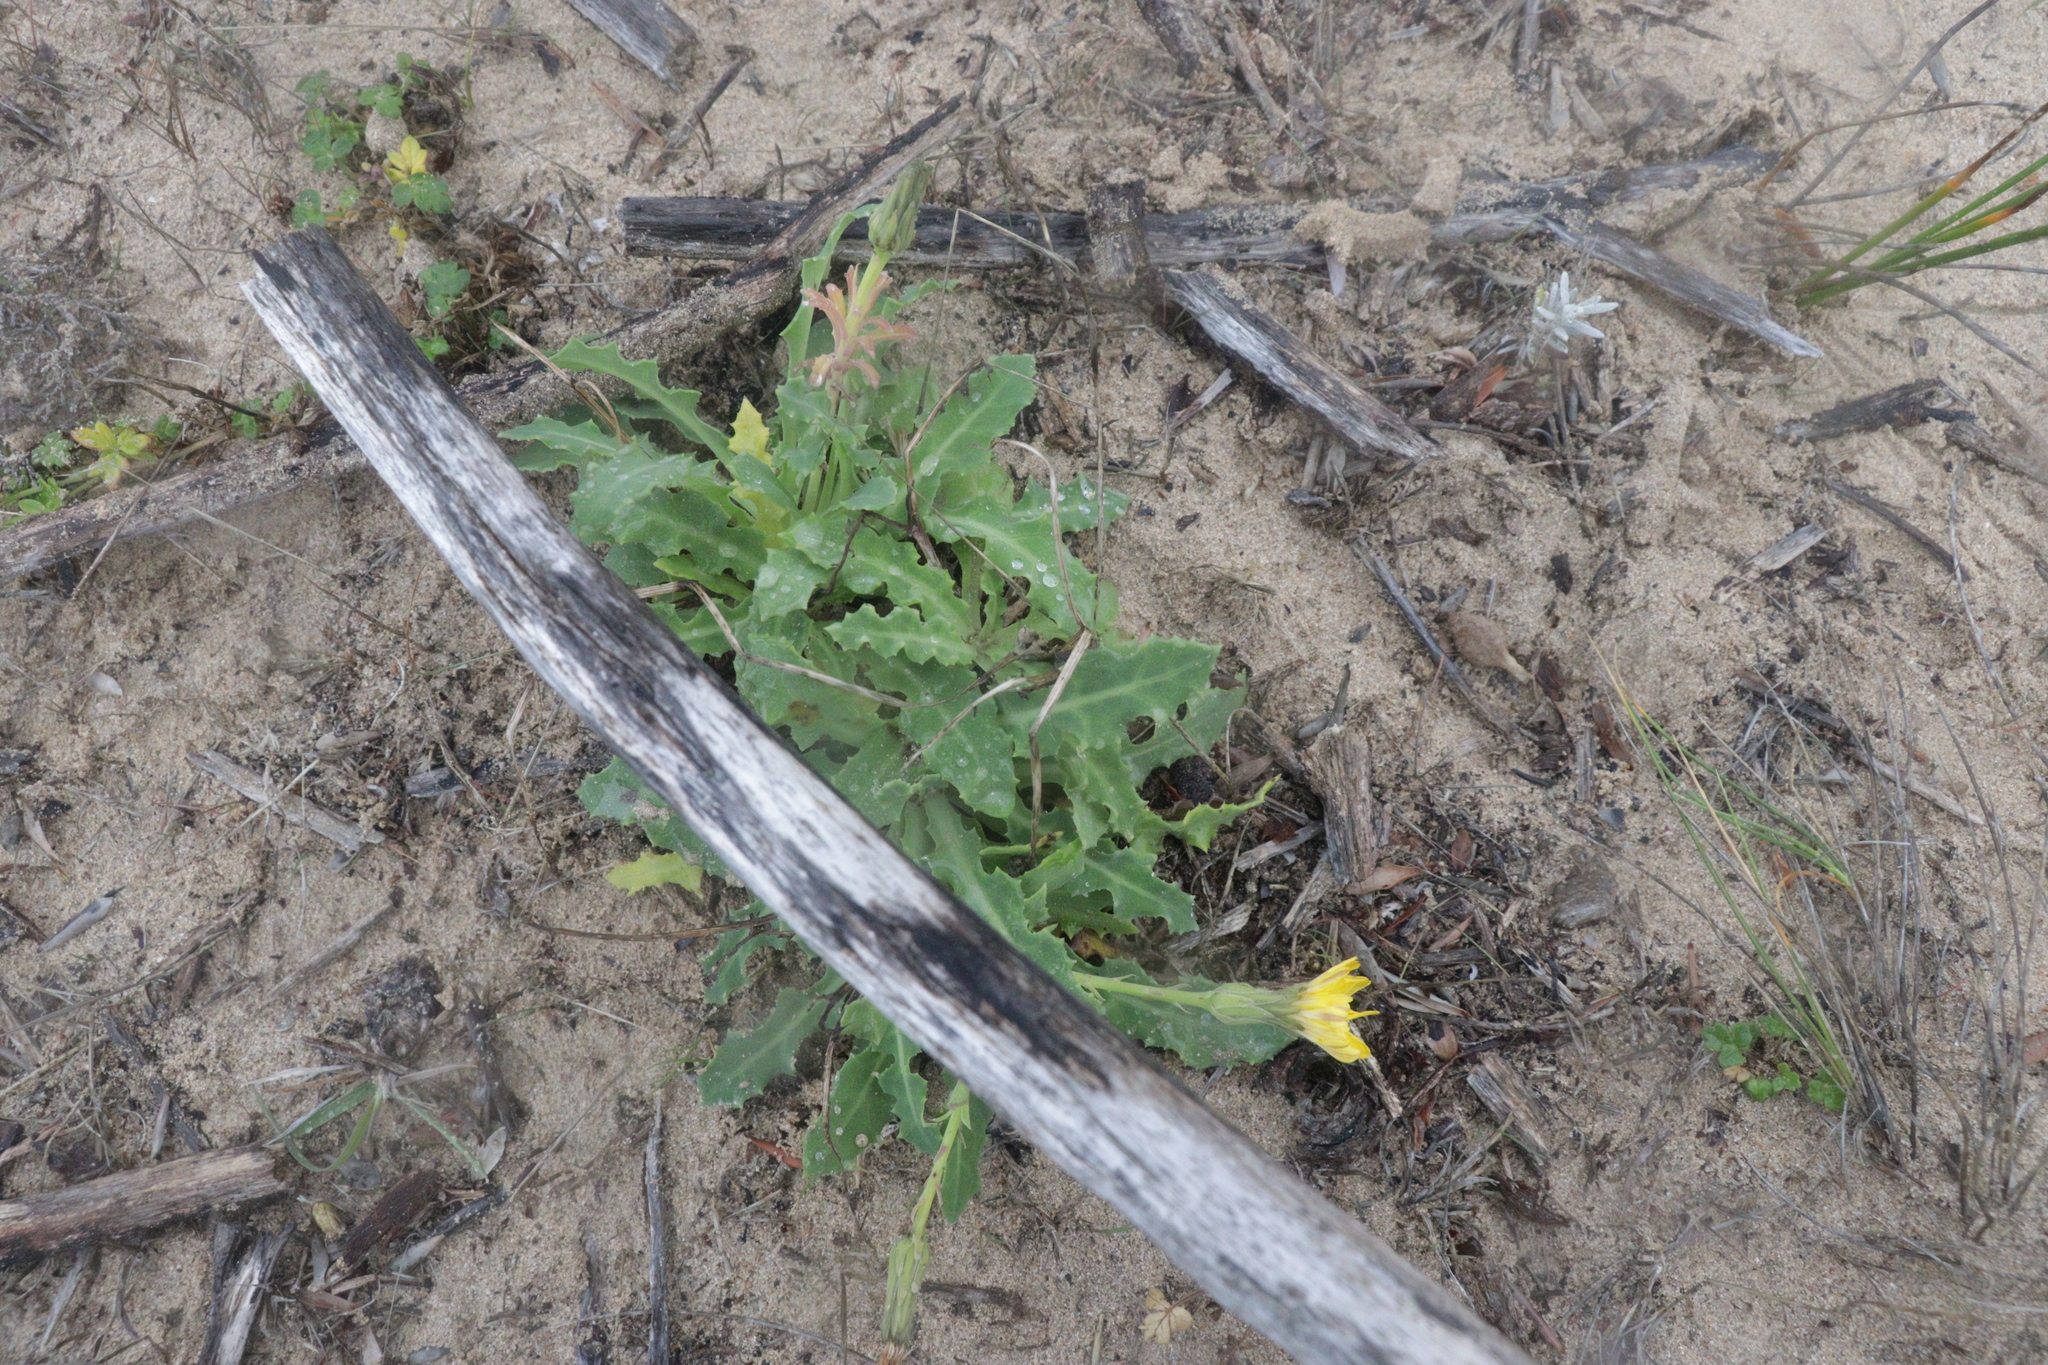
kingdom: Plantae
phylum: Tracheophyta
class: Magnoliopsida
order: Asterales
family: Asteraceae
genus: Sonchus
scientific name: Sonchus megalocarpus
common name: Dune thistle
